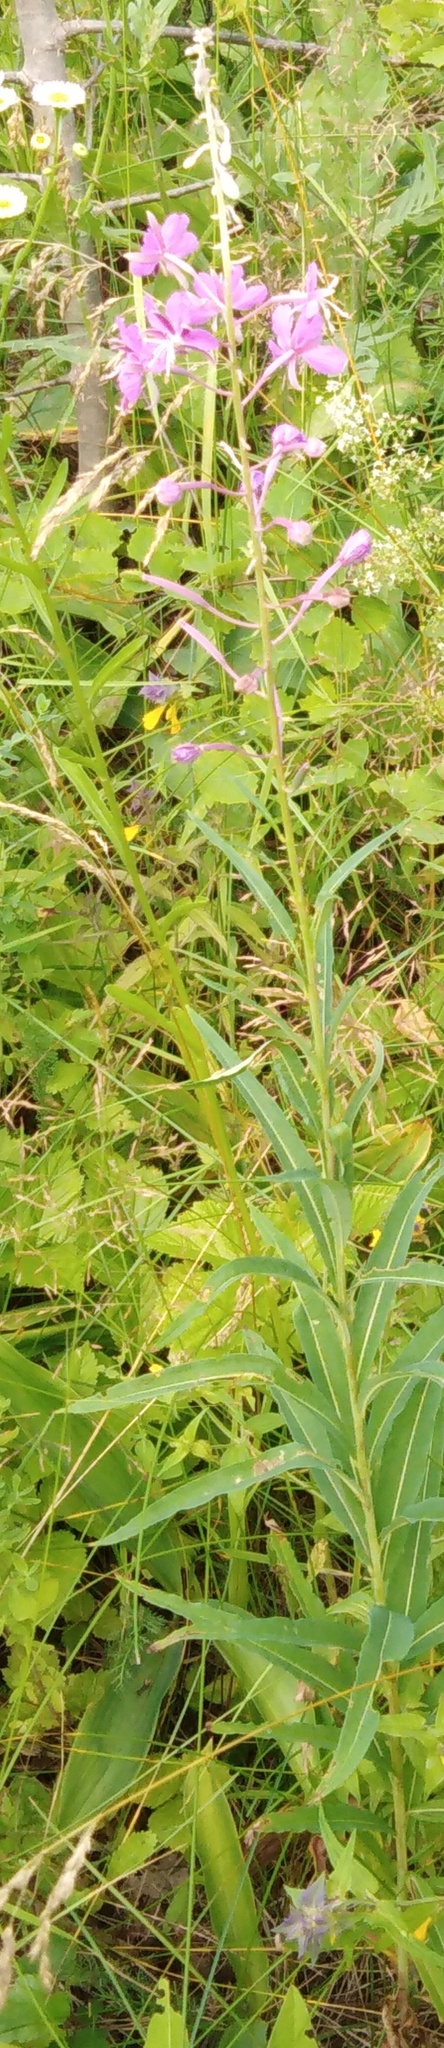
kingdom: Plantae
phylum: Tracheophyta
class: Magnoliopsida
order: Myrtales
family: Onagraceae
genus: Chamaenerion
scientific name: Chamaenerion angustifolium
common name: Fireweed
